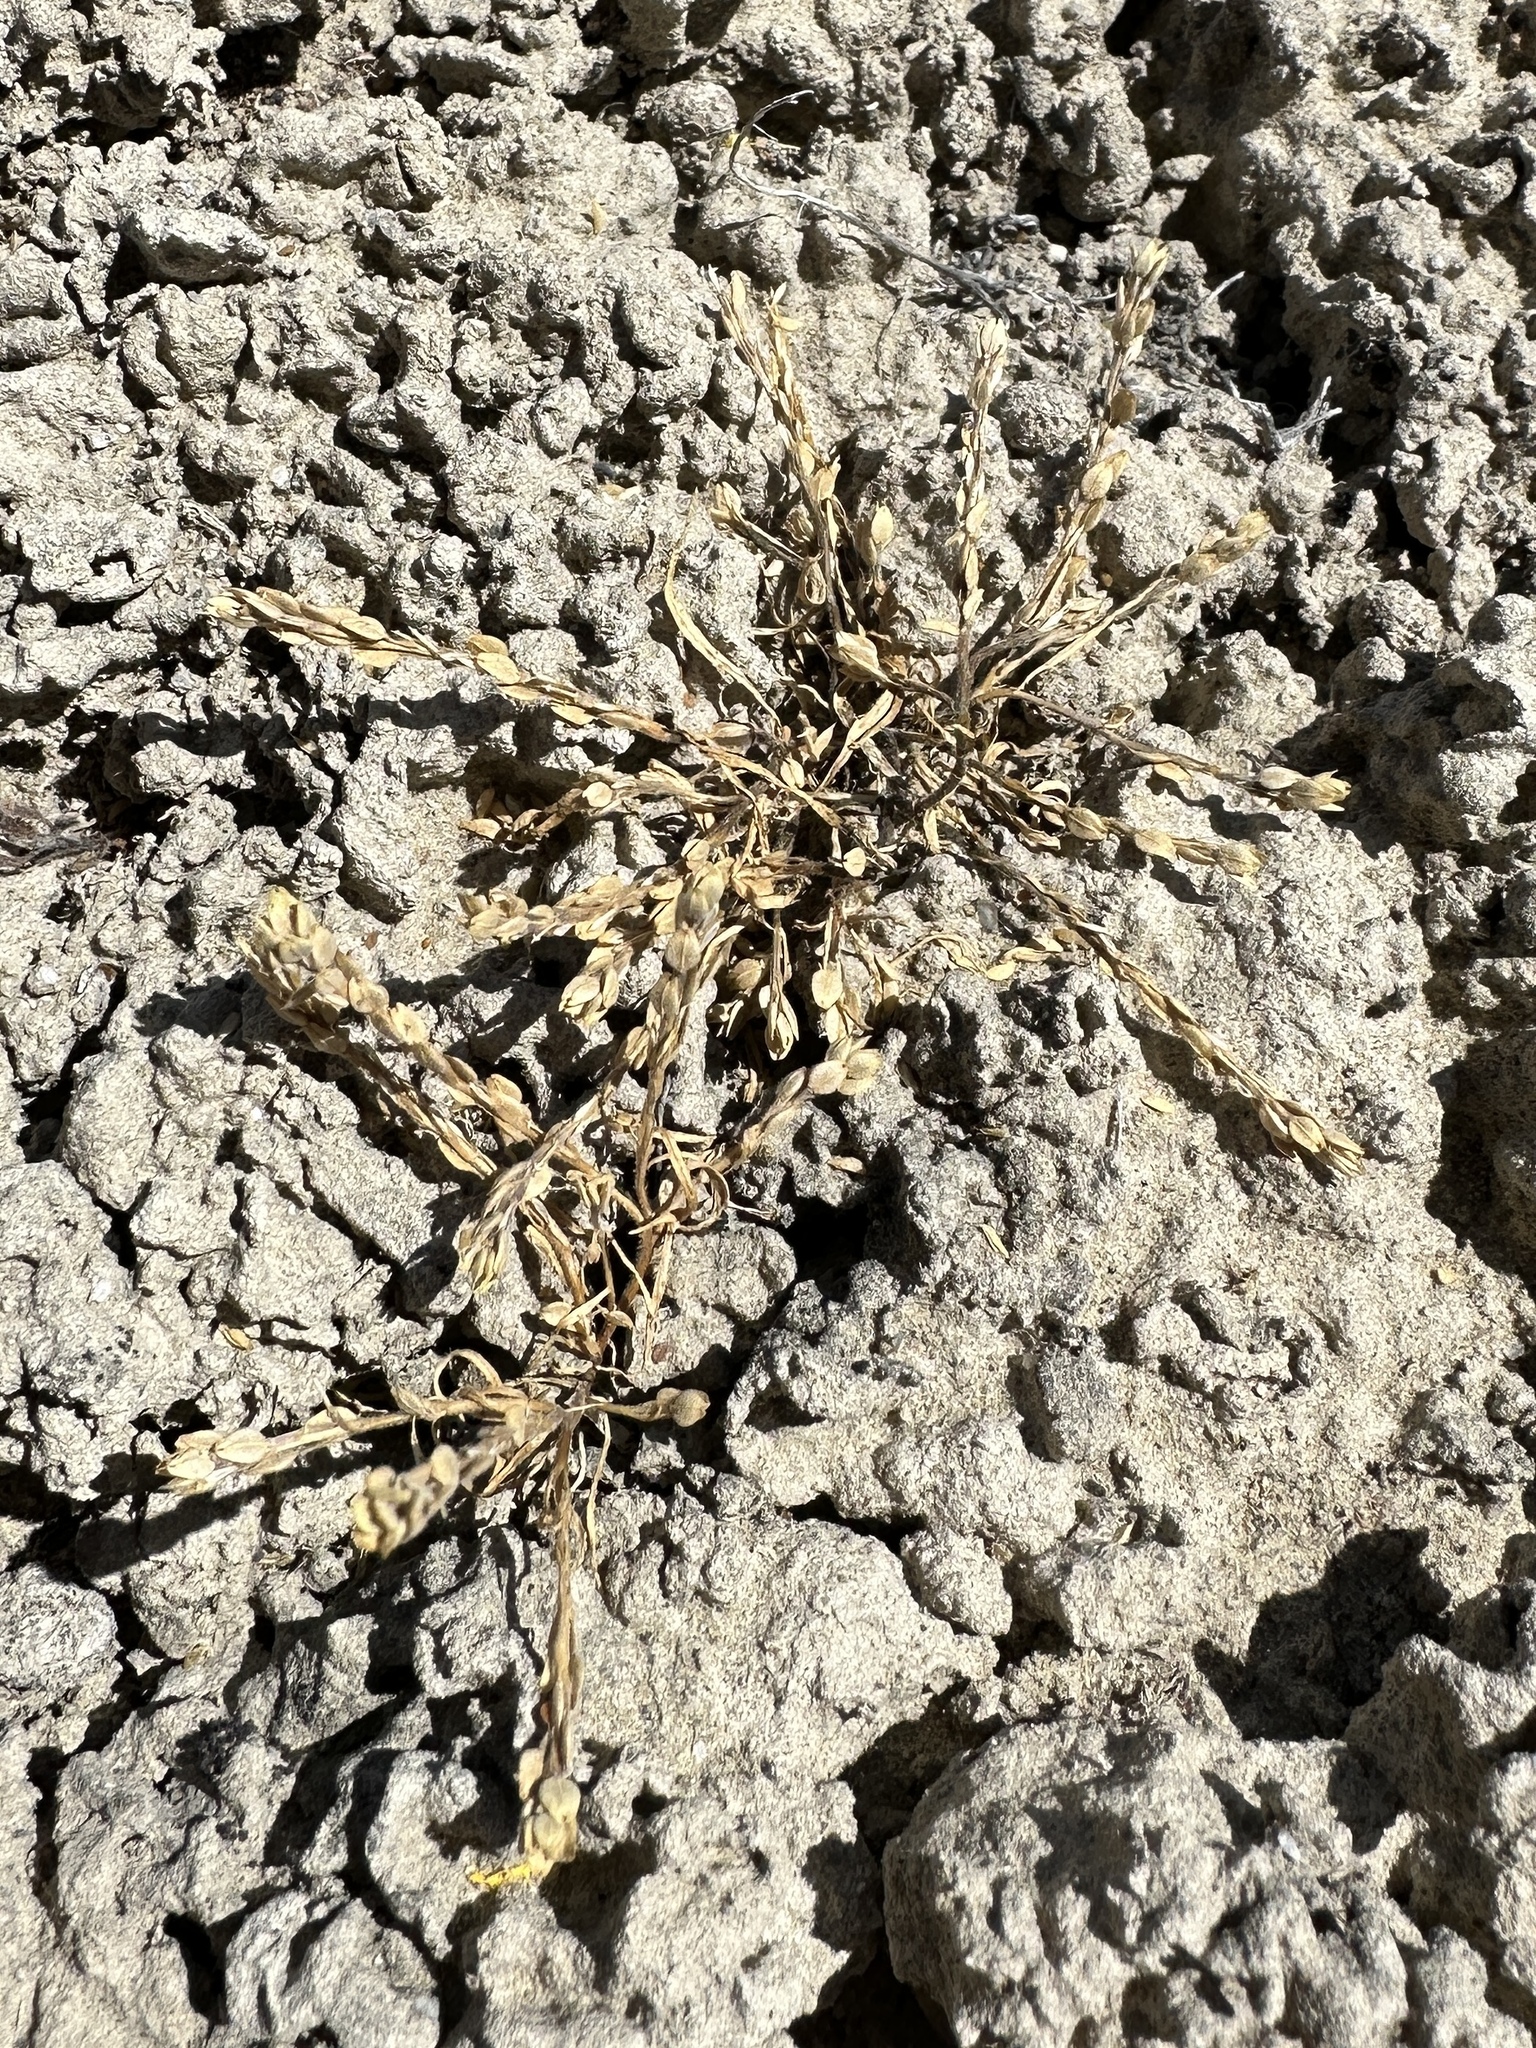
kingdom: Plantae
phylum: Tracheophyta
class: Magnoliopsida
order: Brassicales
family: Brassicaceae
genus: Lepidium
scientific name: Lepidium dictyotum
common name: Alkali pepperwort
